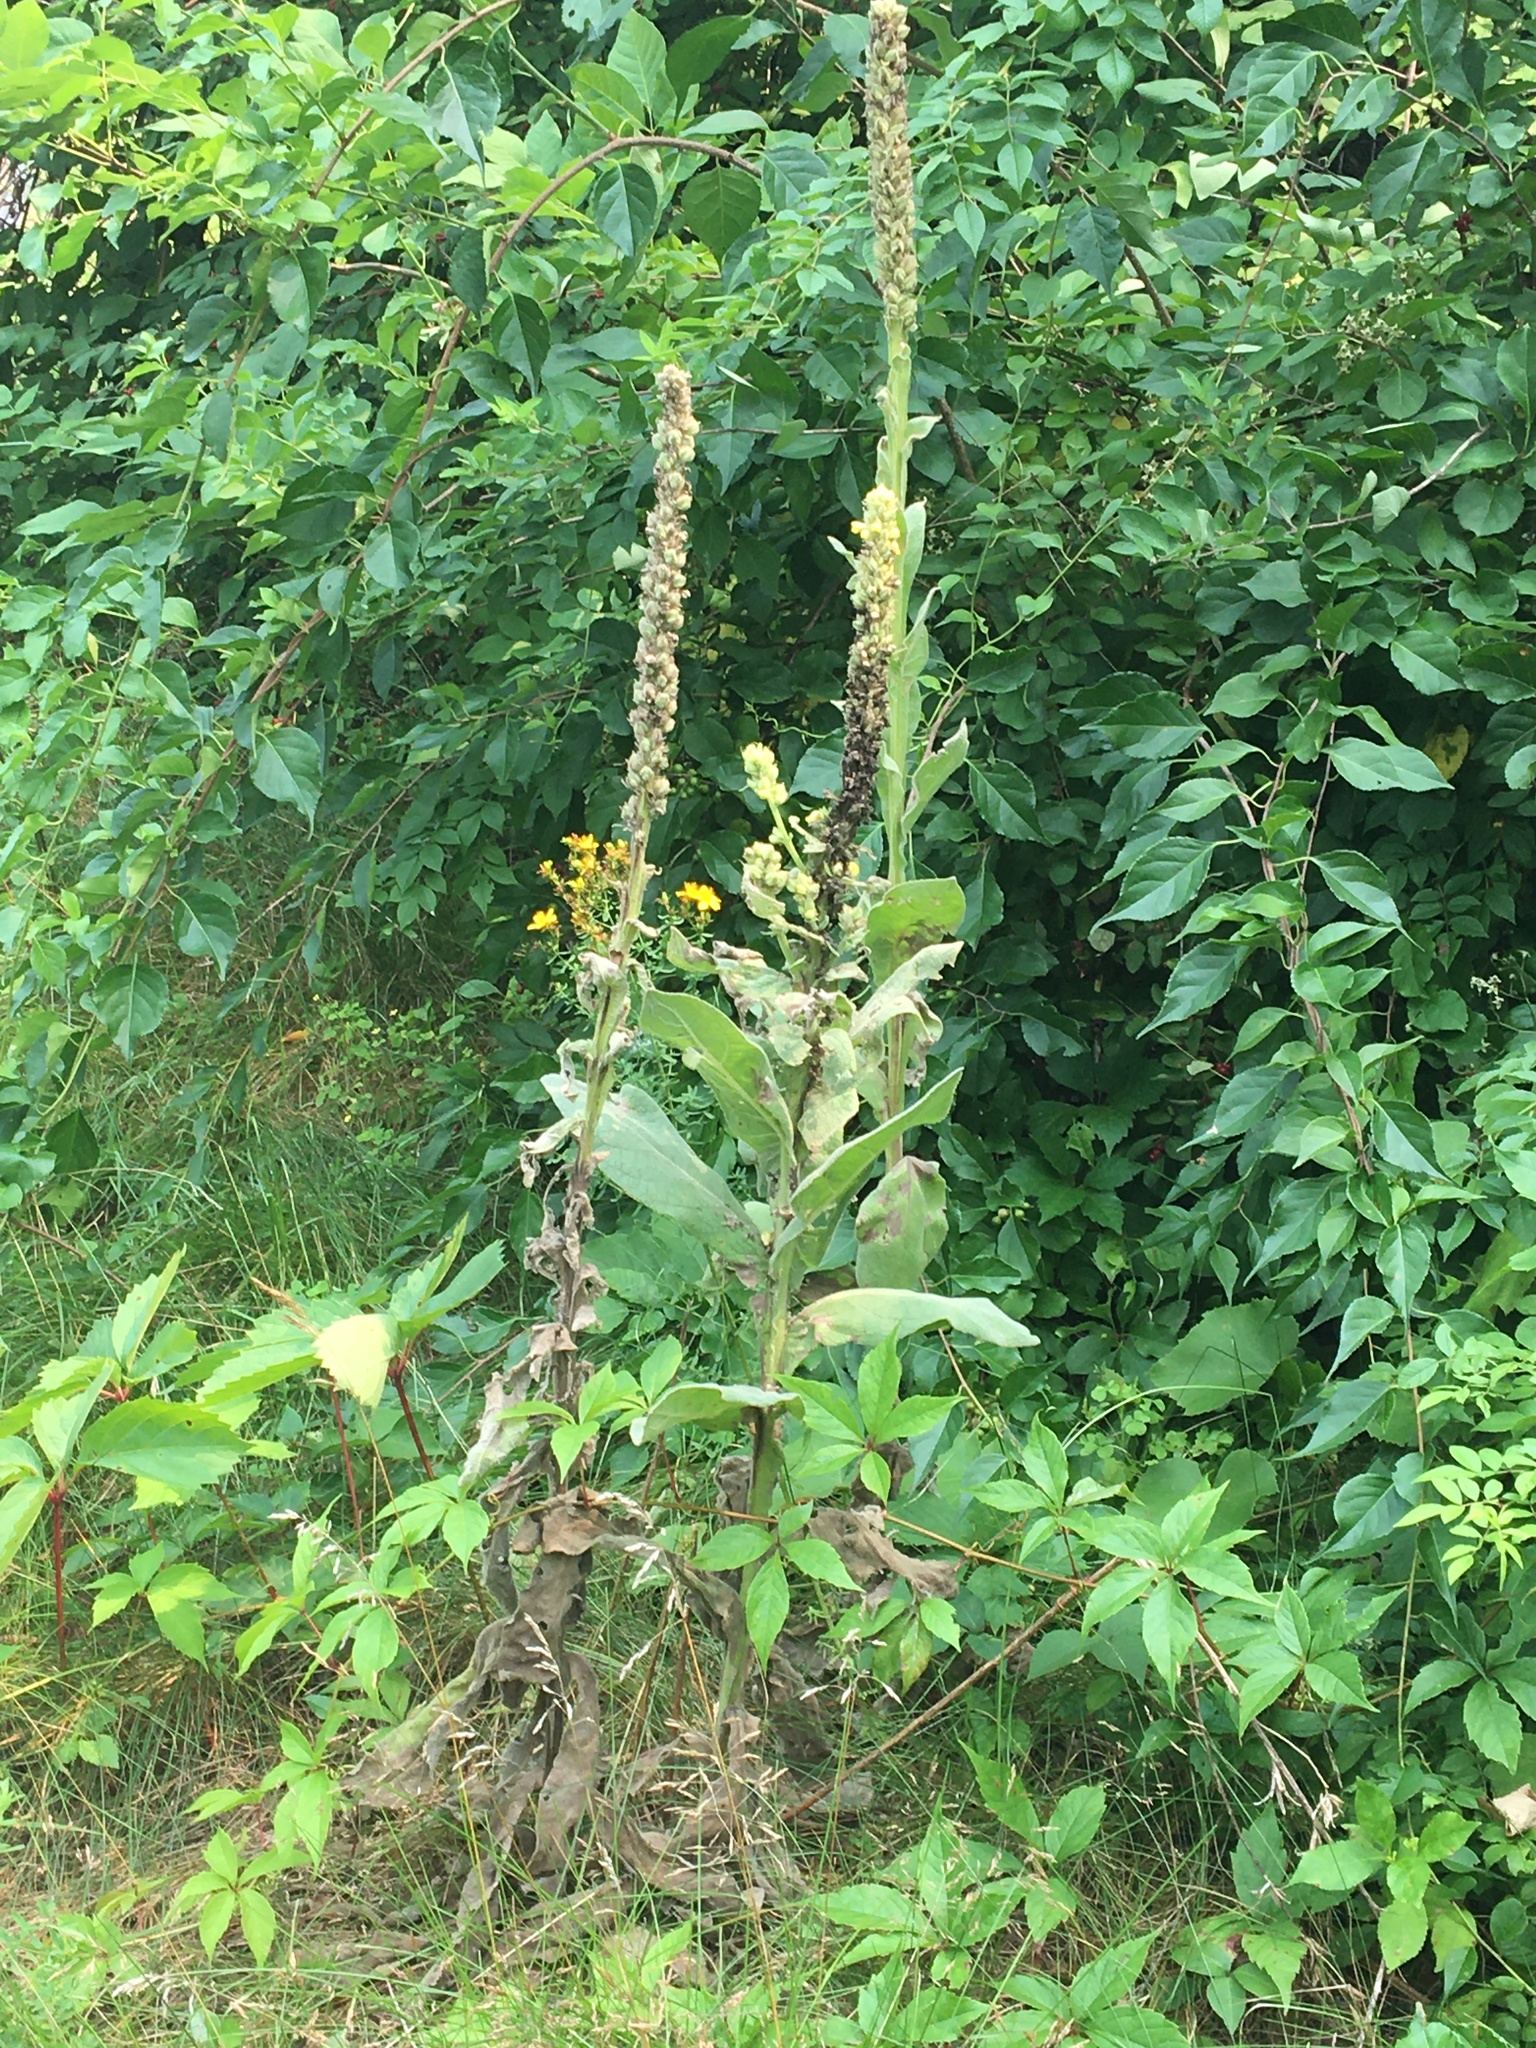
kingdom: Plantae
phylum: Tracheophyta
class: Magnoliopsida
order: Lamiales
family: Scrophulariaceae
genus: Verbascum
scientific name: Verbascum thapsus
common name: Common mullein
